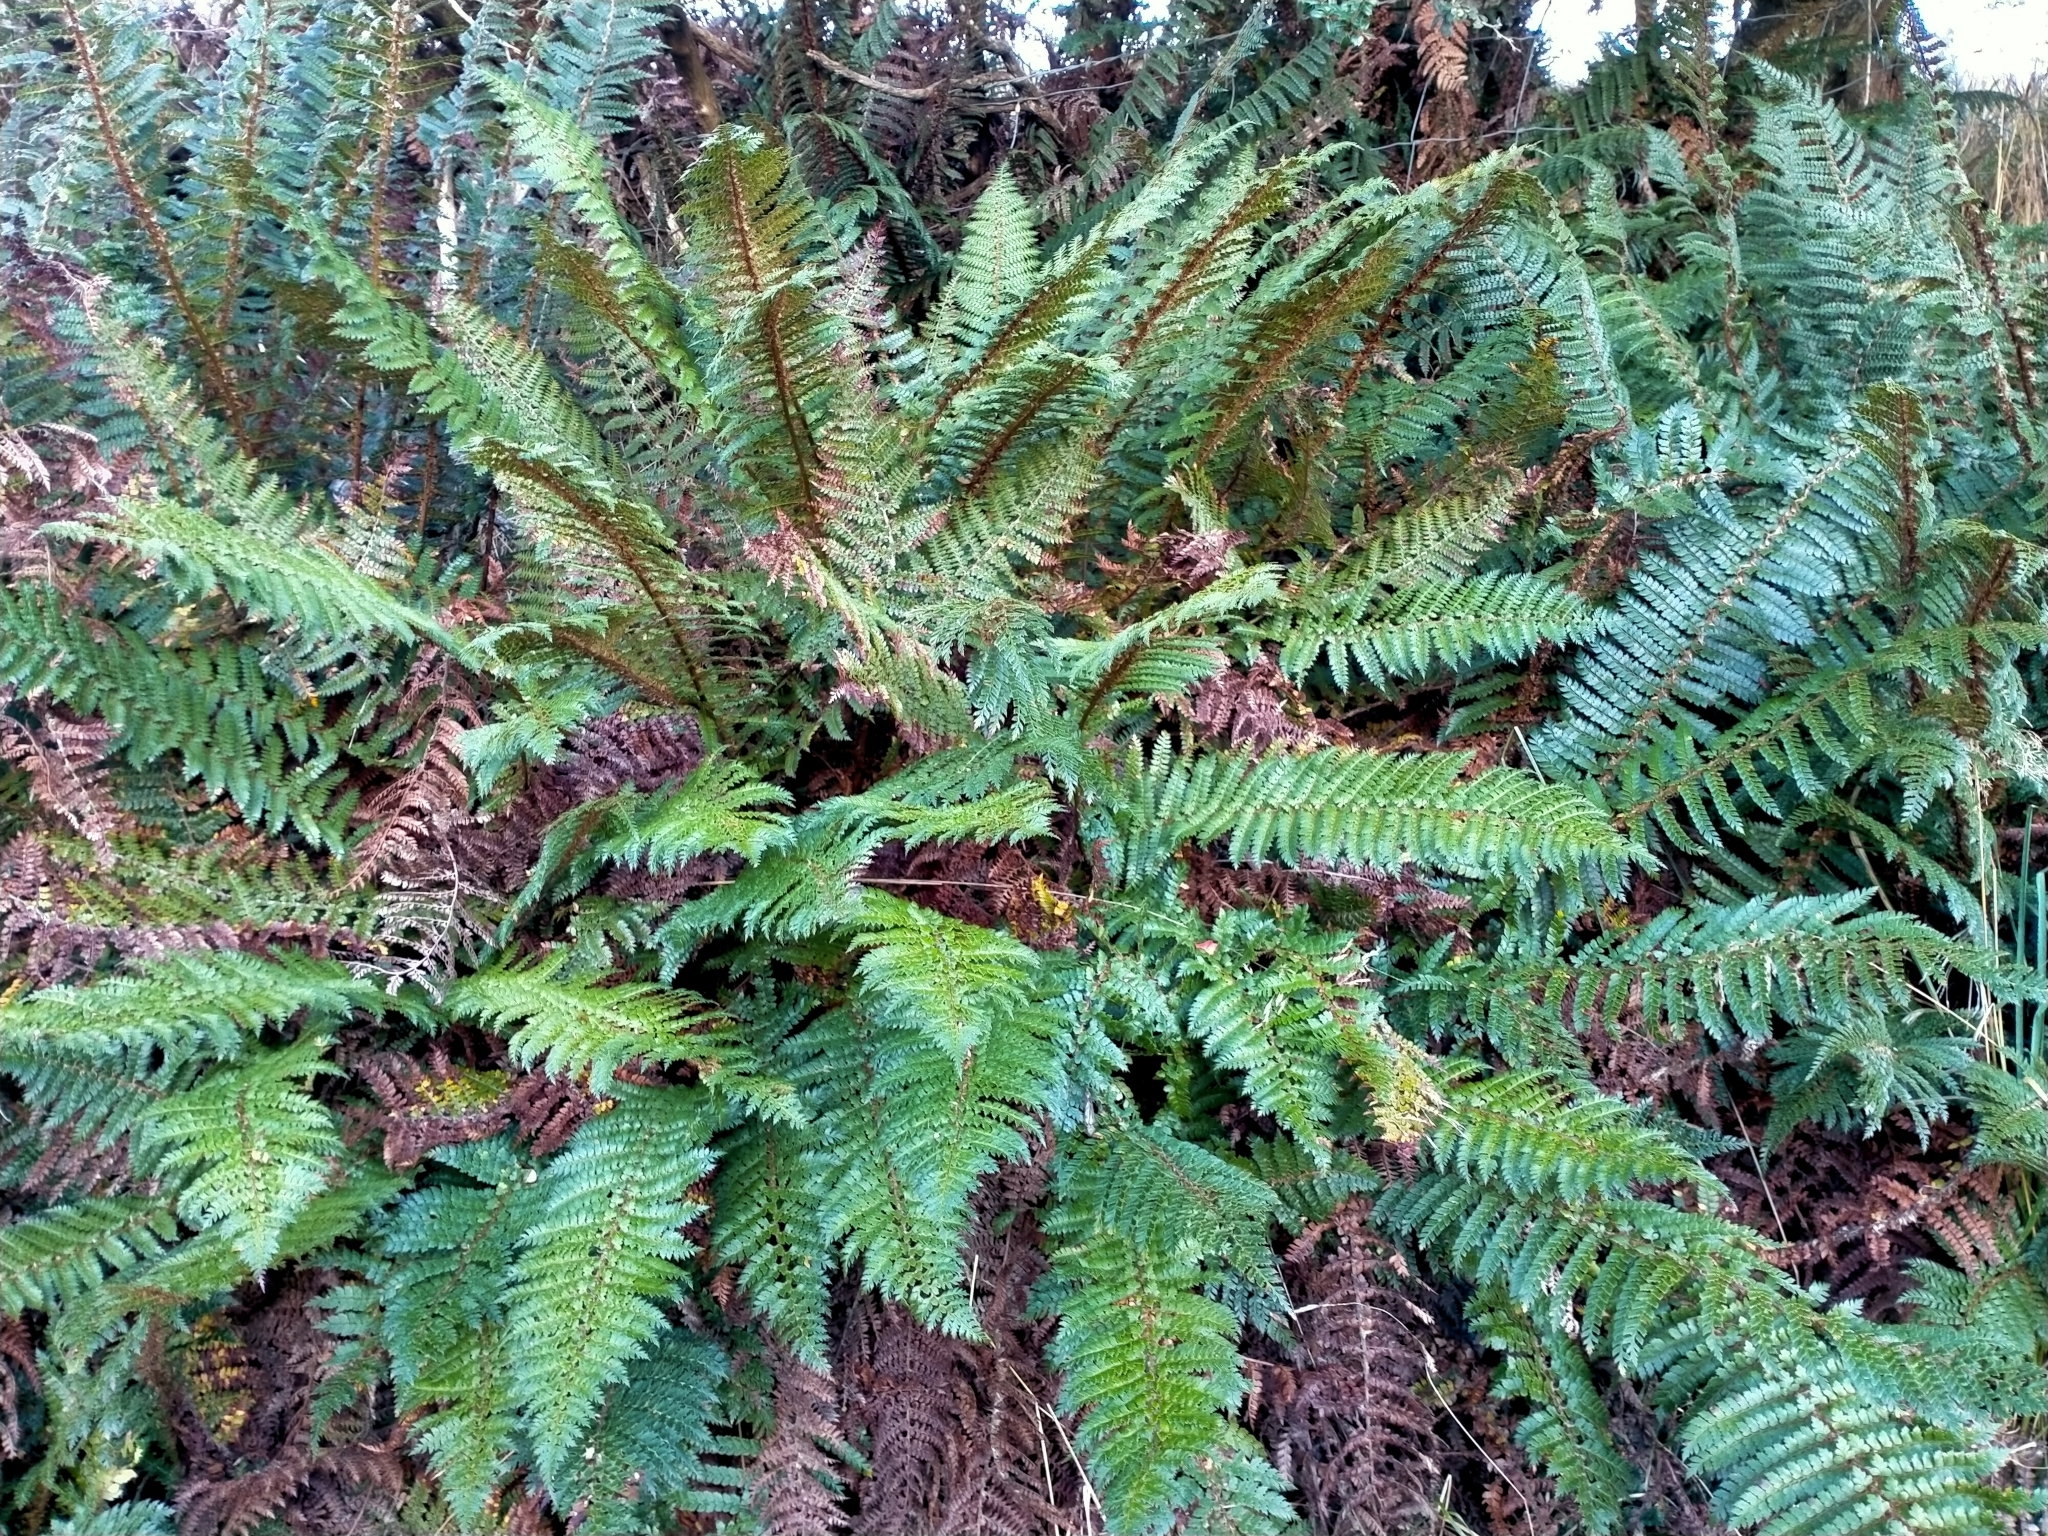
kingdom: Plantae
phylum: Tracheophyta
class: Polypodiopsida
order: Polypodiales
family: Dryopteridaceae
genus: Polystichum
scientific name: Polystichum vestitum
